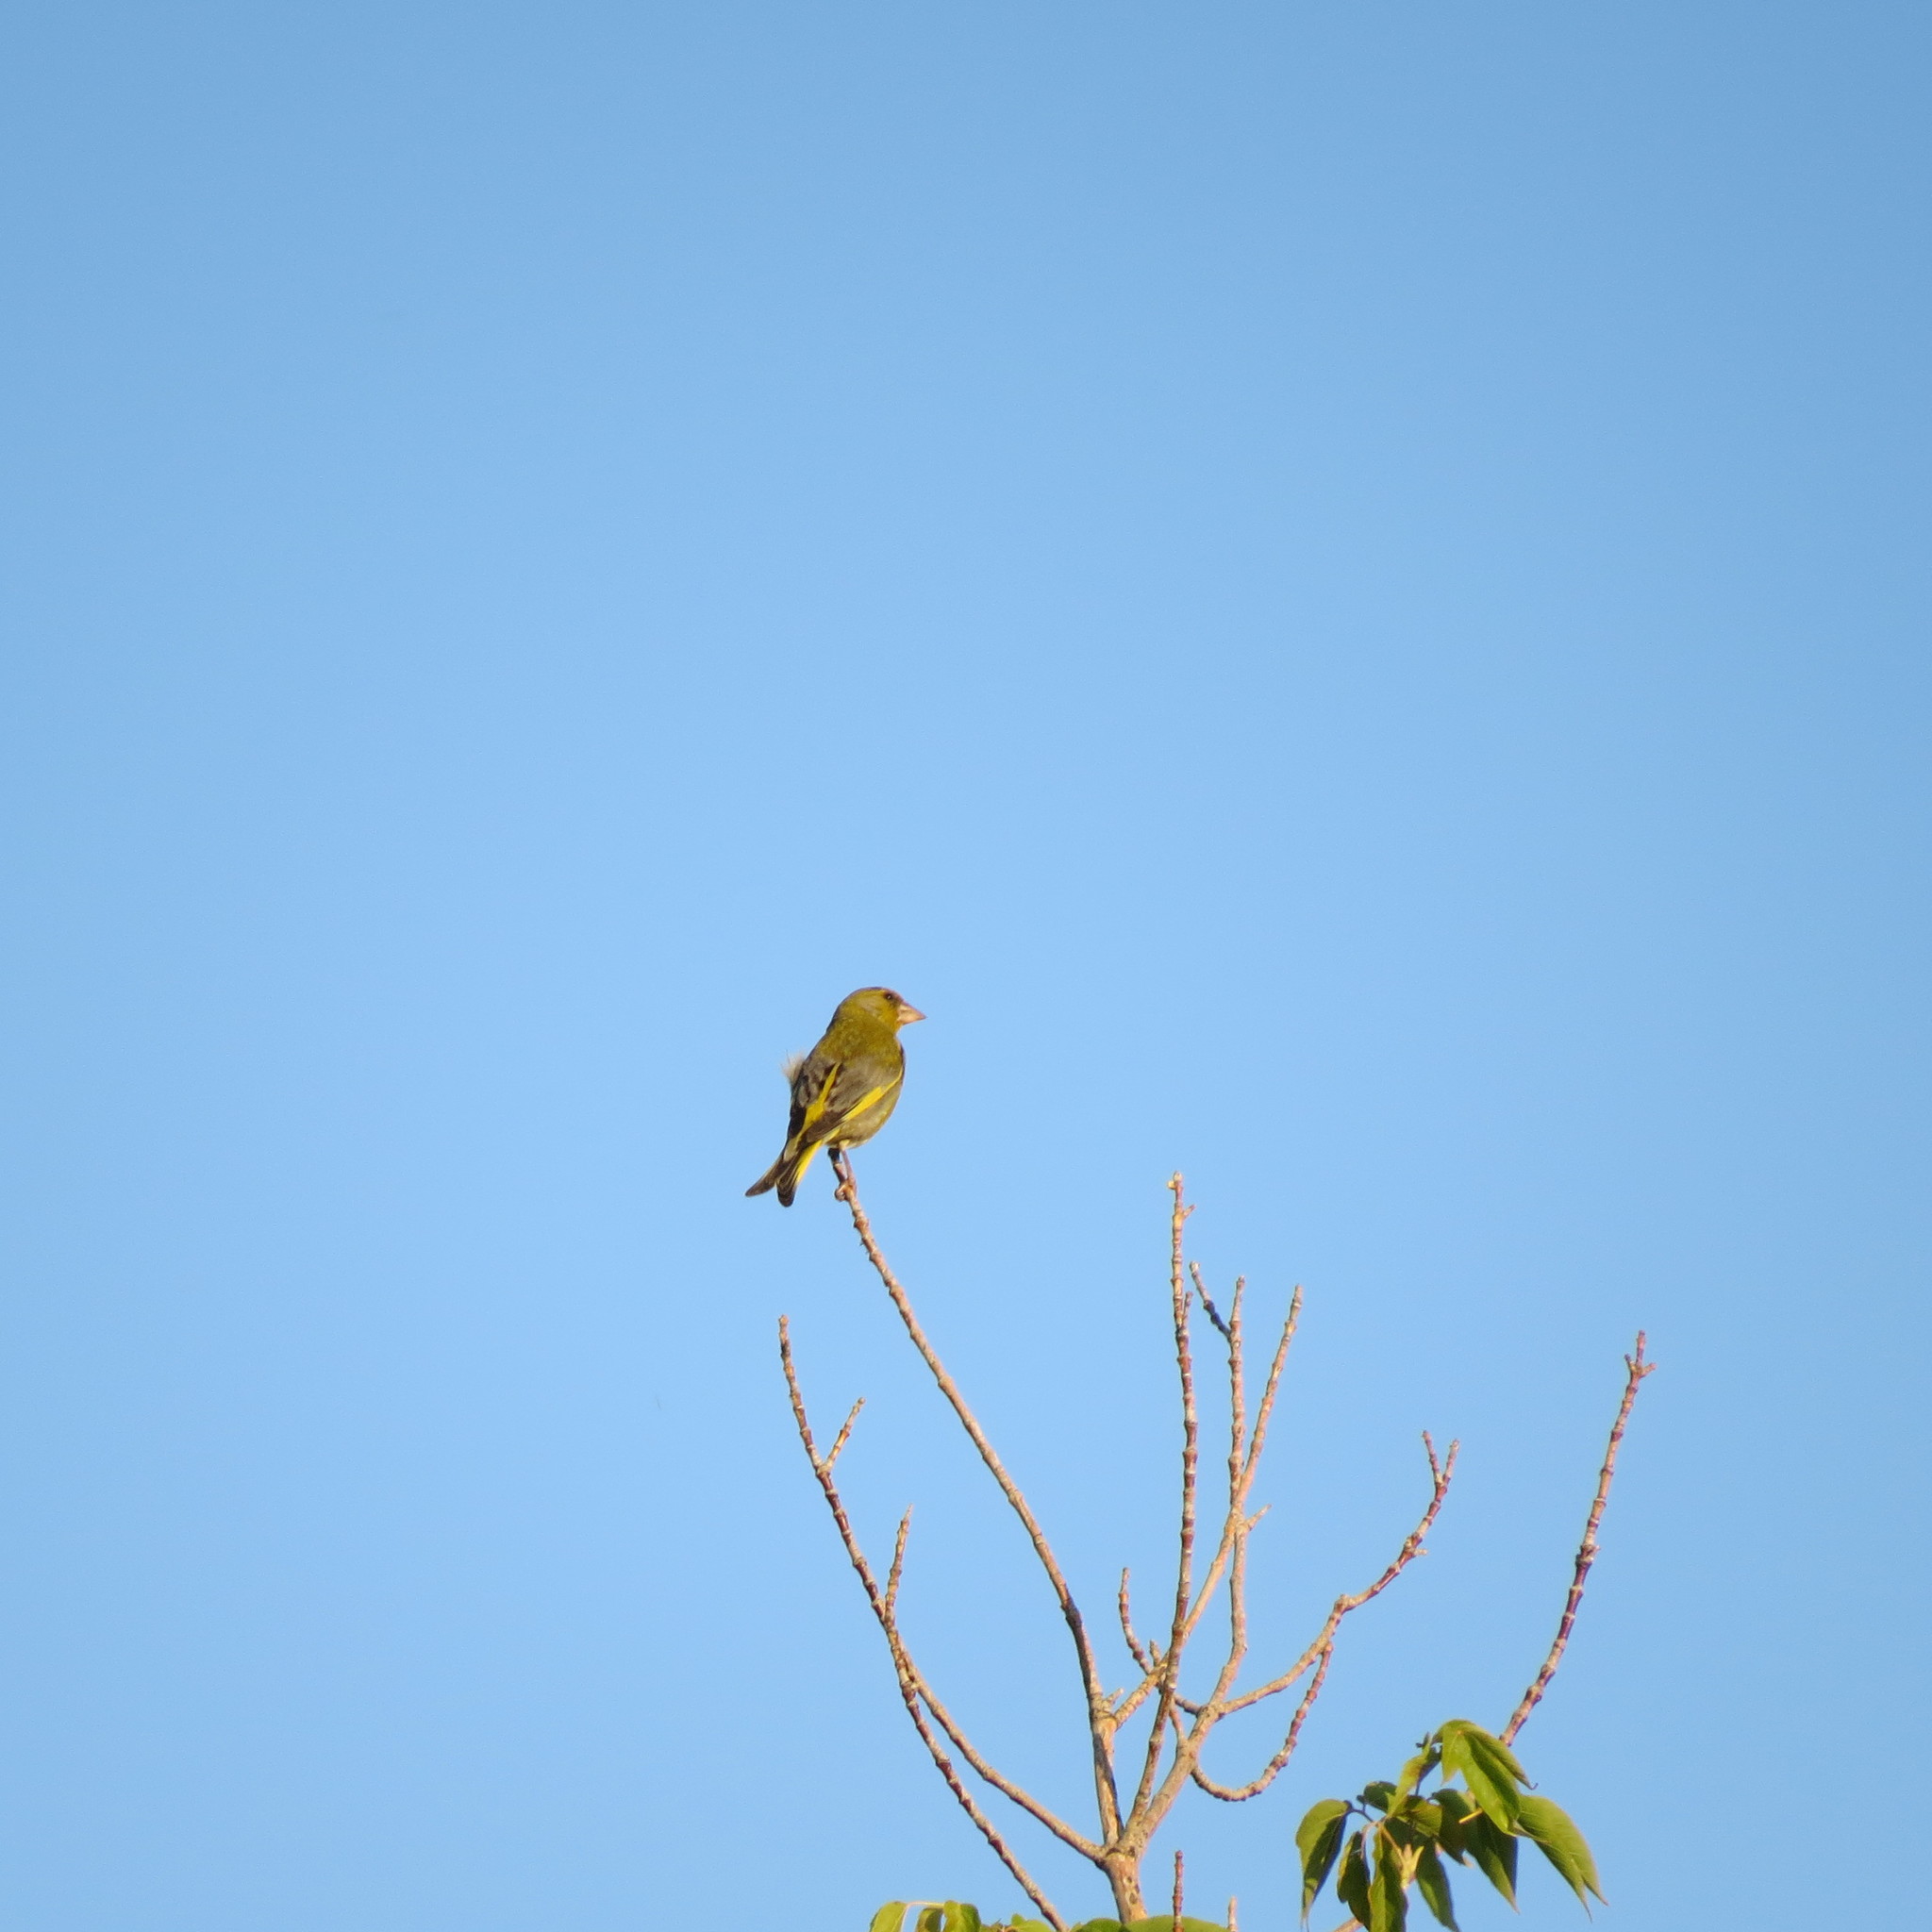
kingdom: Plantae
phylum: Tracheophyta
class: Liliopsida
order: Poales
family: Poaceae
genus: Chloris
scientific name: Chloris chloris
